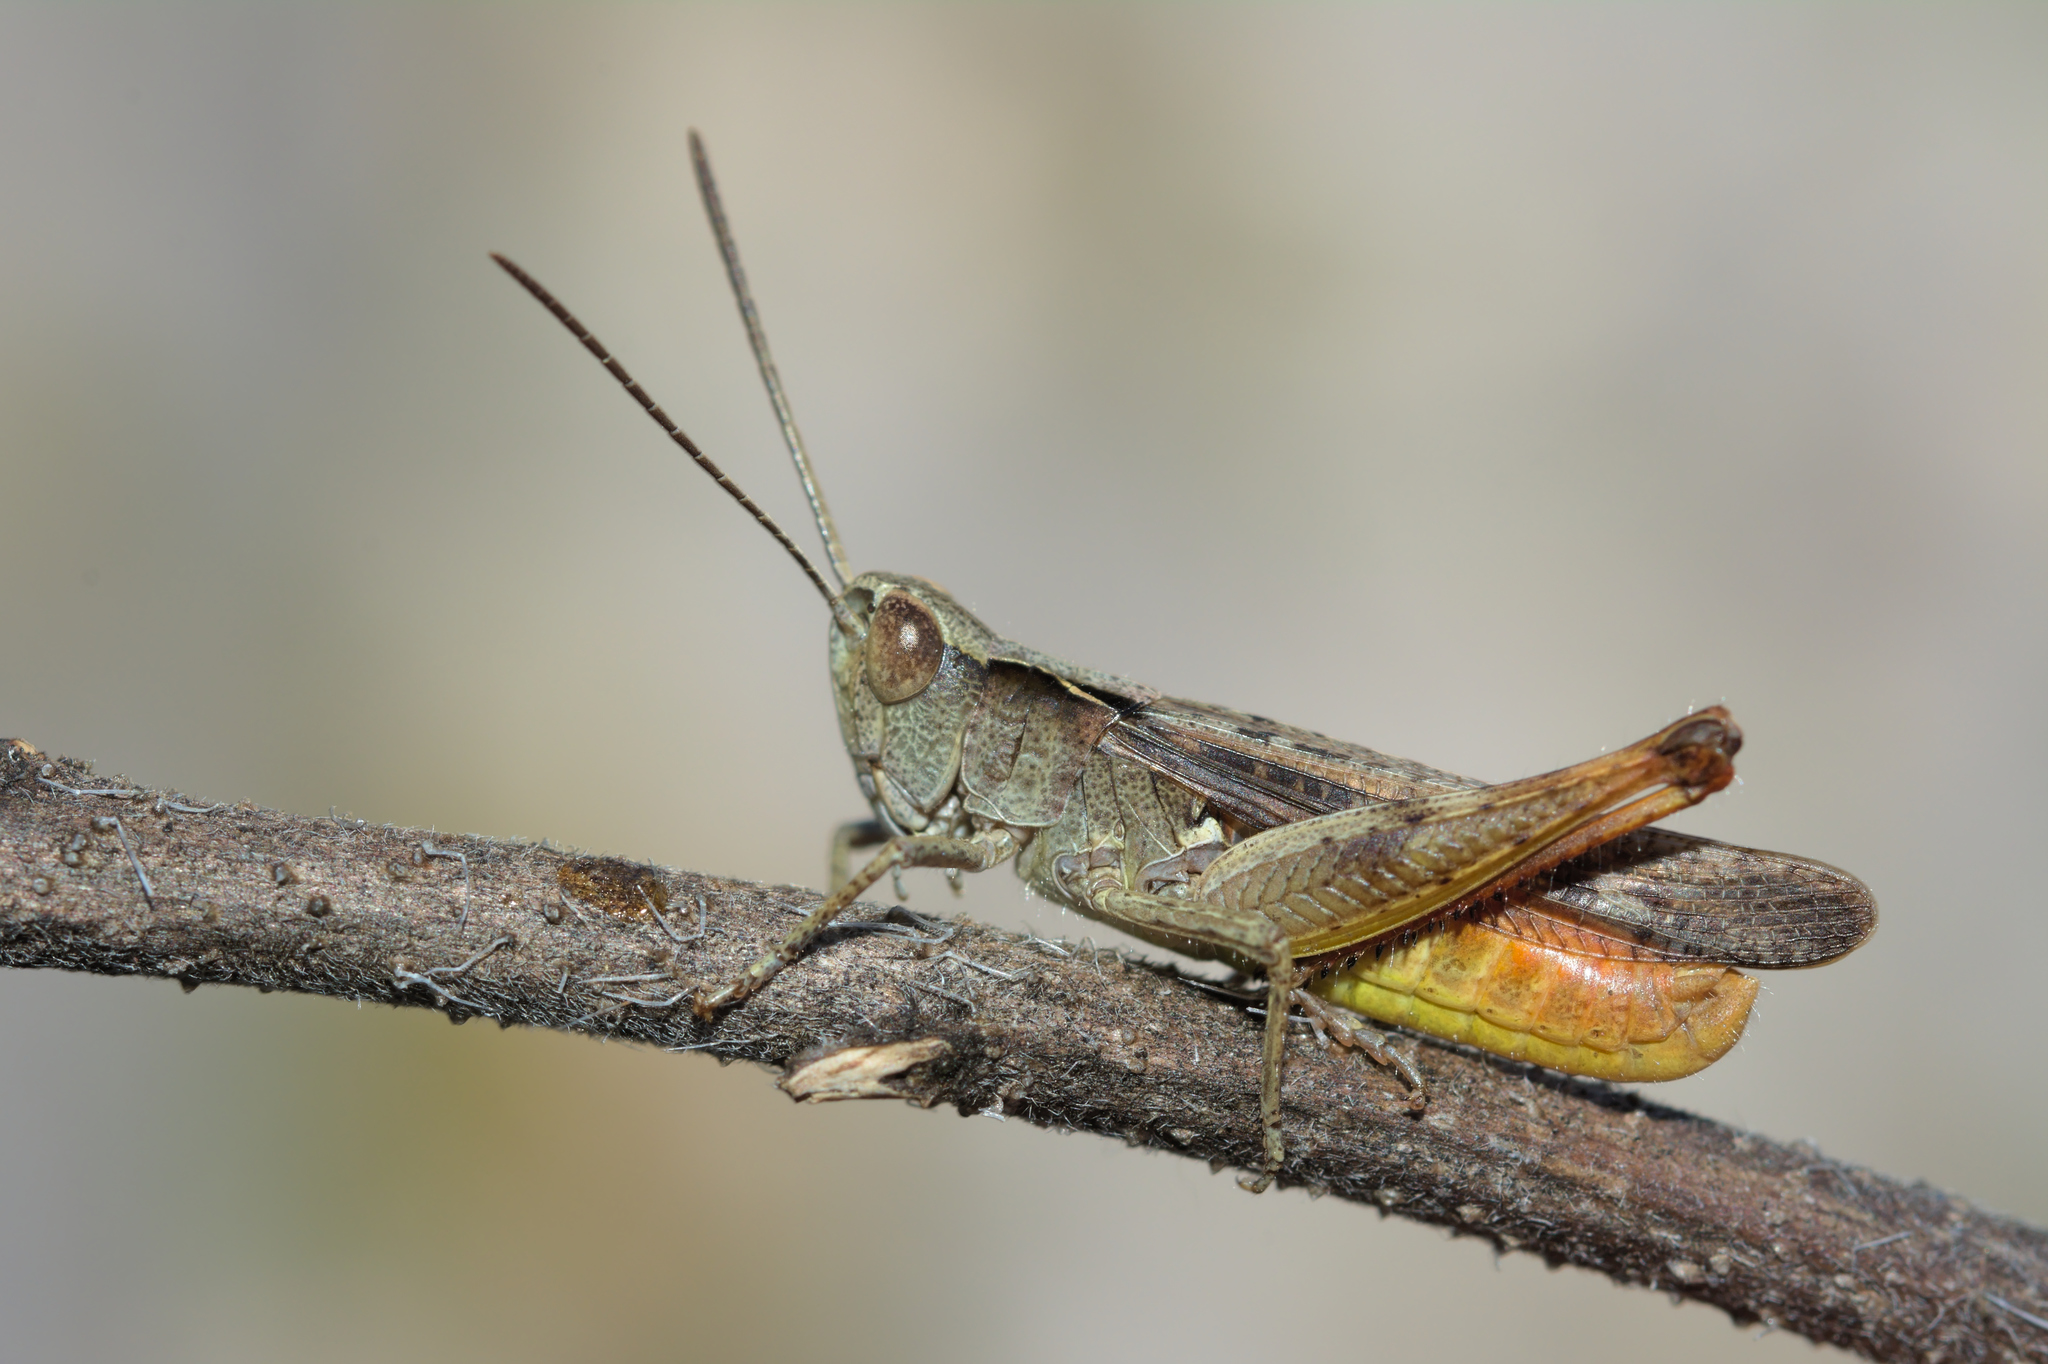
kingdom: Animalia
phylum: Arthropoda
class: Insecta
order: Orthoptera
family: Acrididae
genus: Chorthippus
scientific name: Chorthippus vagans
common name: Heath grasshopper
